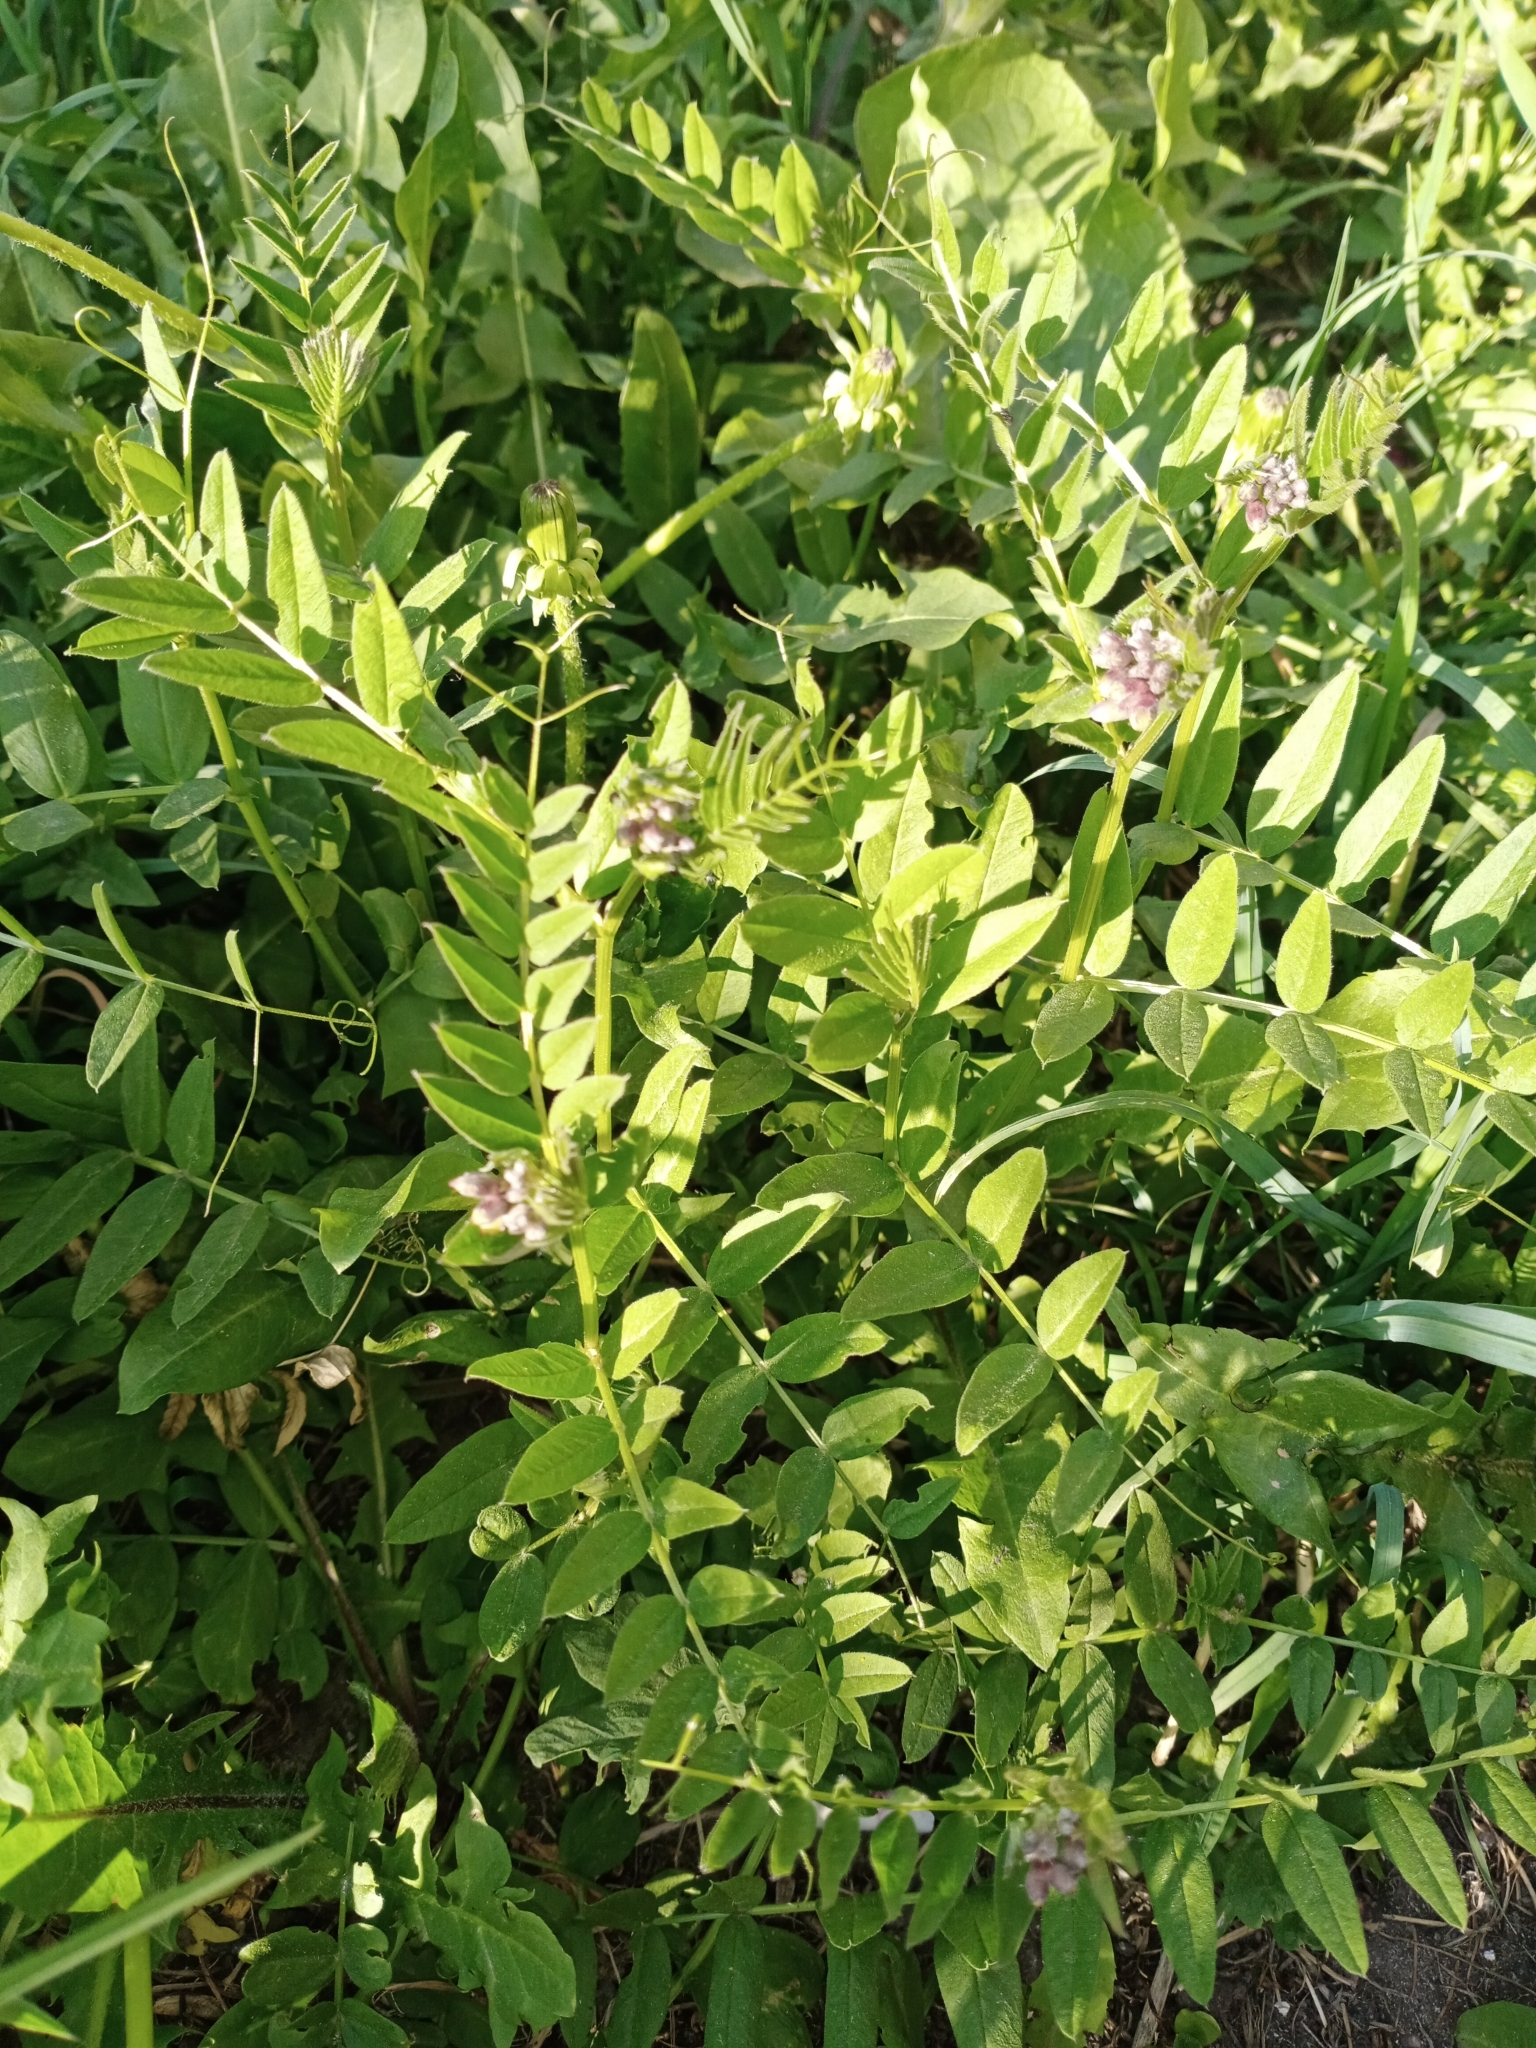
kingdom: Plantae
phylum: Tracheophyta
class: Magnoliopsida
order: Fabales
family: Fabaceae
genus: Vicia
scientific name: Vicia sepium
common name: Bush vetch
